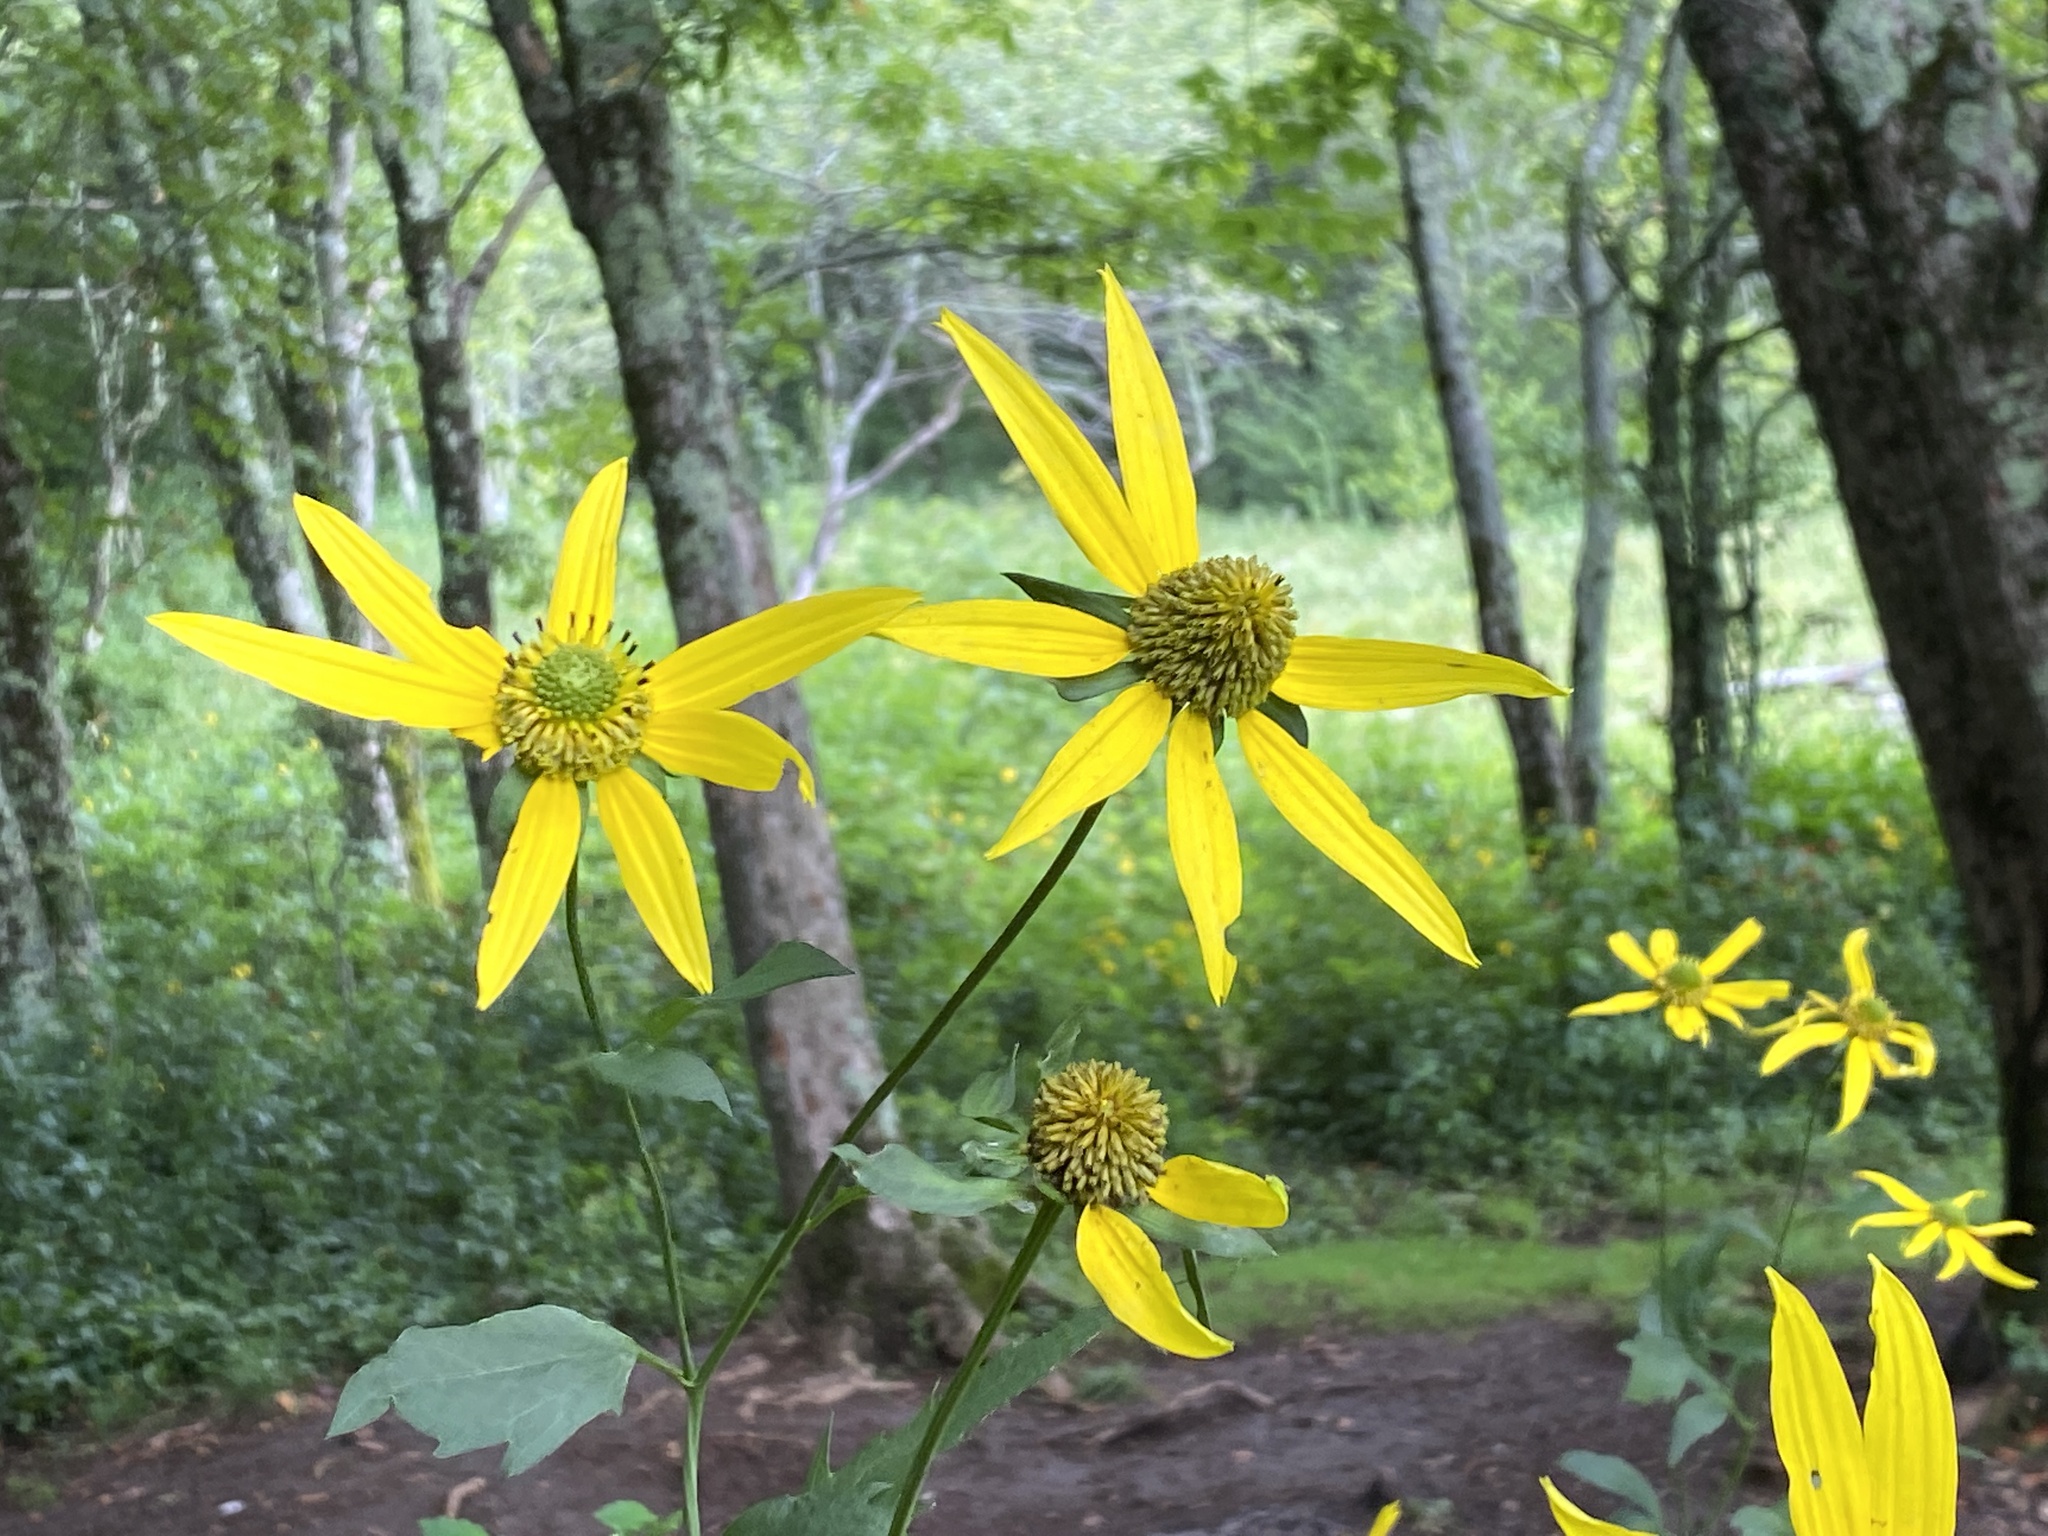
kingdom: Plantae
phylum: Tracheophyta
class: Magnoliopsida
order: Asterales
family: Asteraceae
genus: Rudbeckia
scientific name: Rudbeckia laciniata
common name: Coneflower
